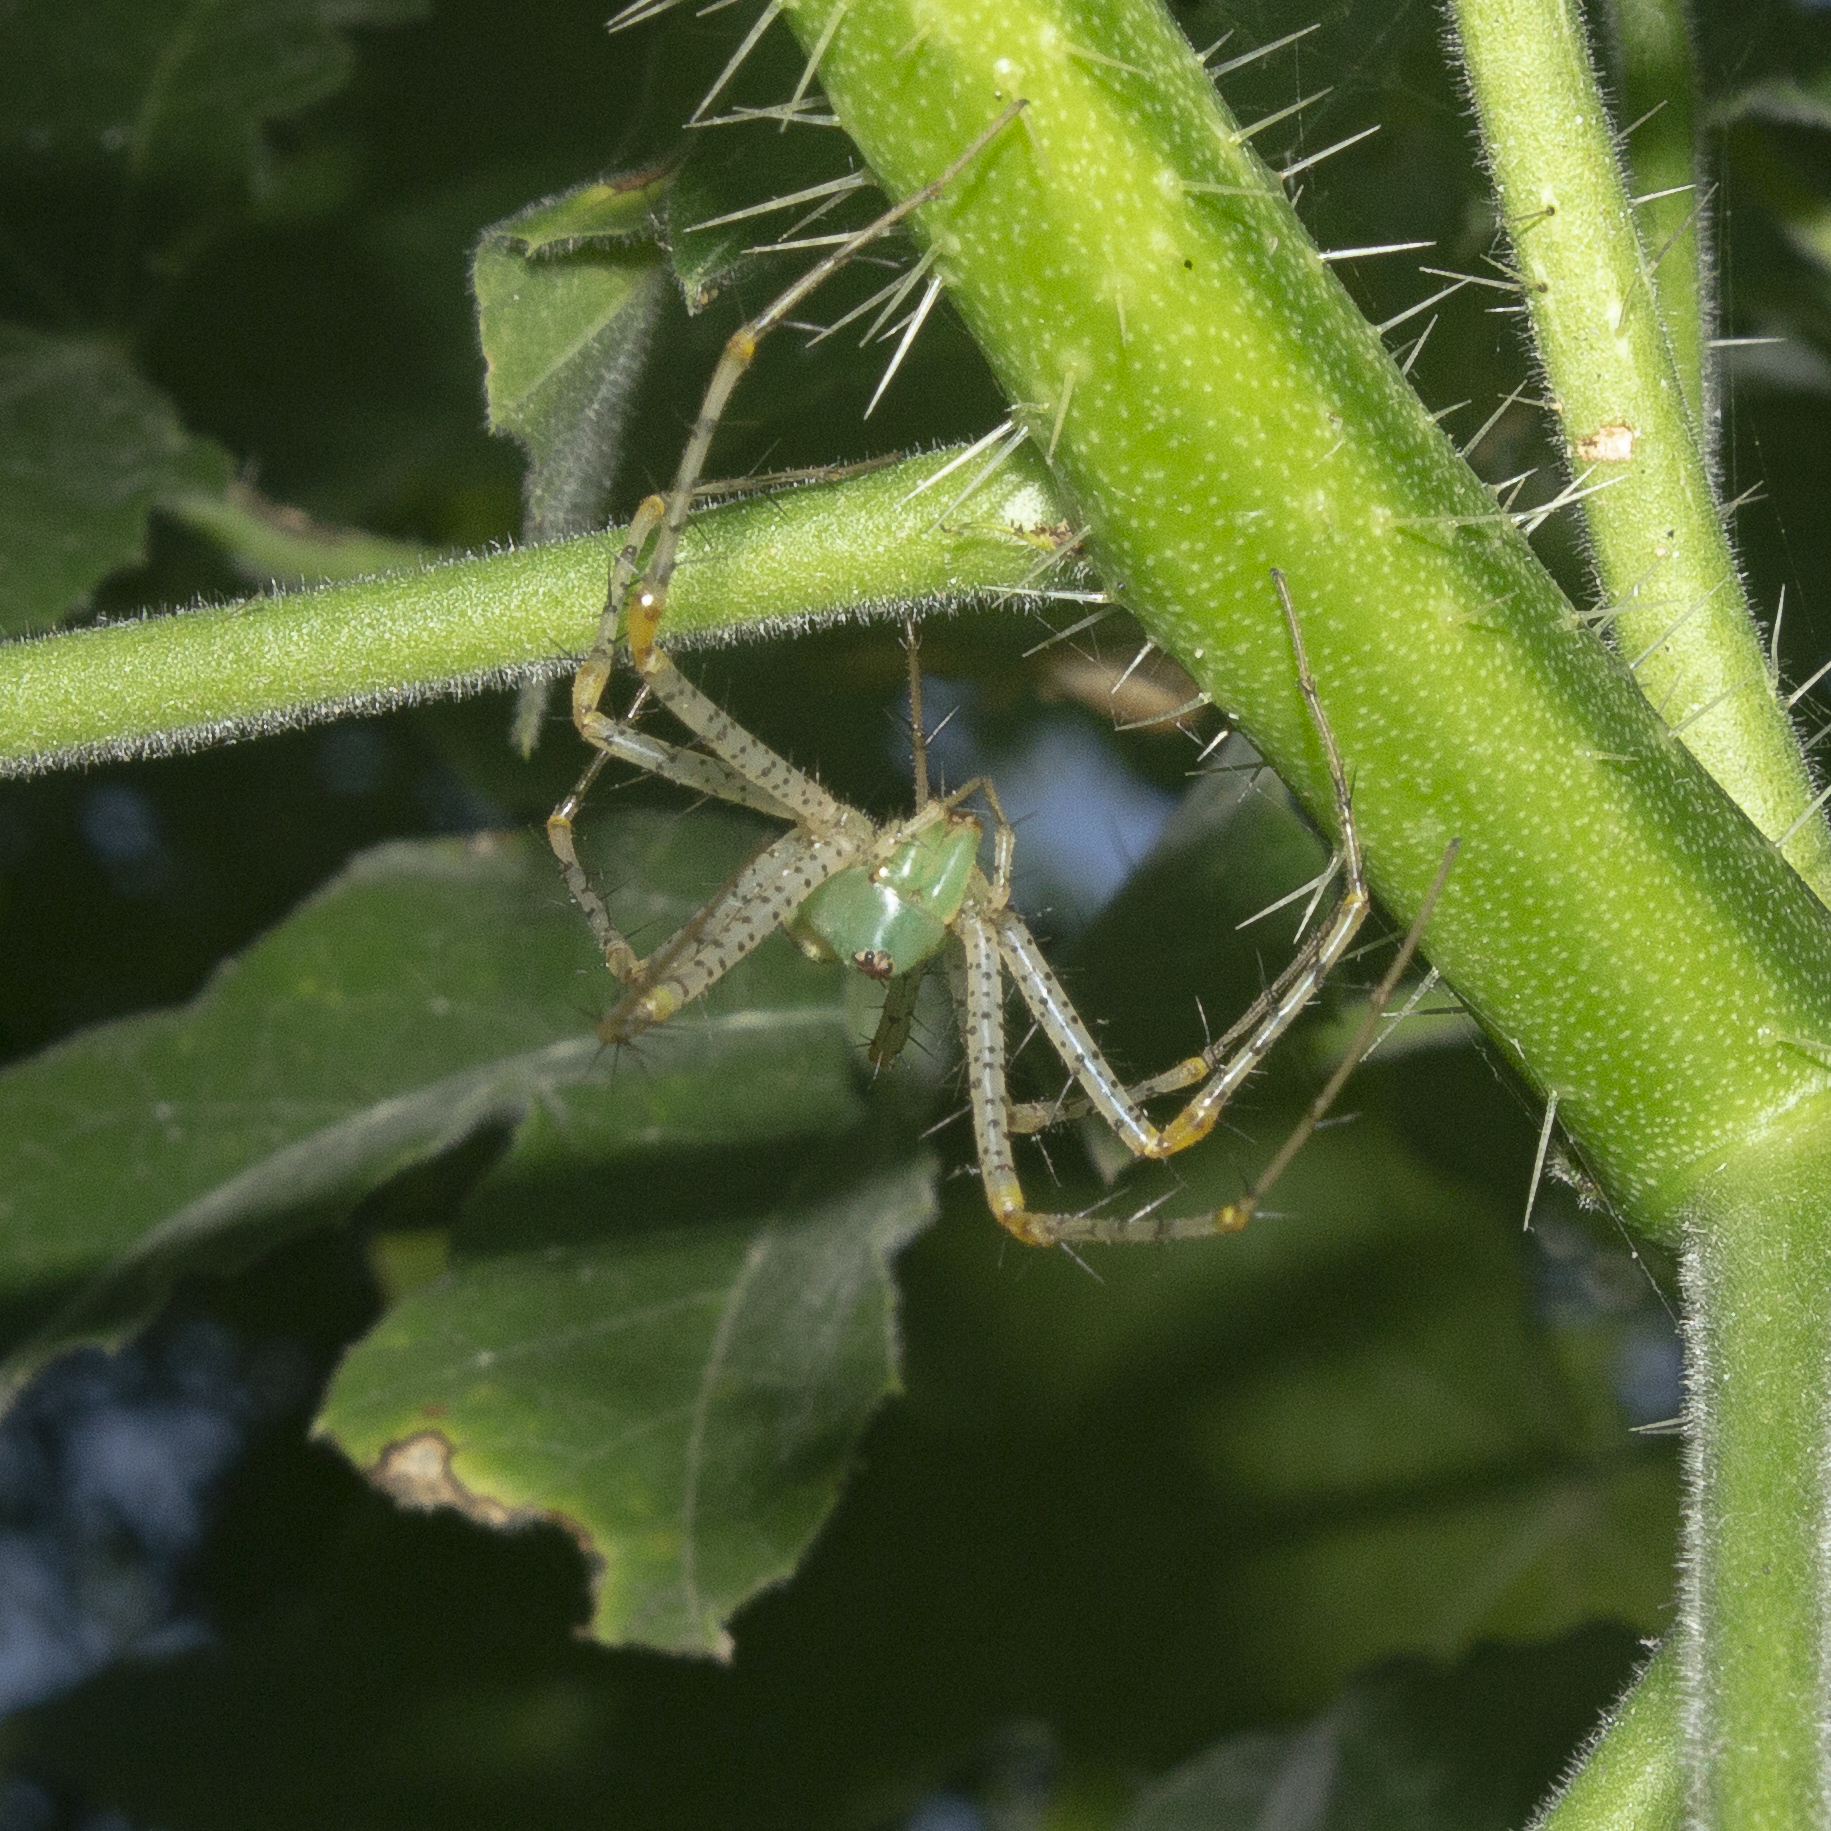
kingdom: Animalia
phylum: Arthropoda
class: Arachnida
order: Araneae
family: Oxyopidae
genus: Peucetia
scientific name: Peucetia viridans
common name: Lynx spiders
